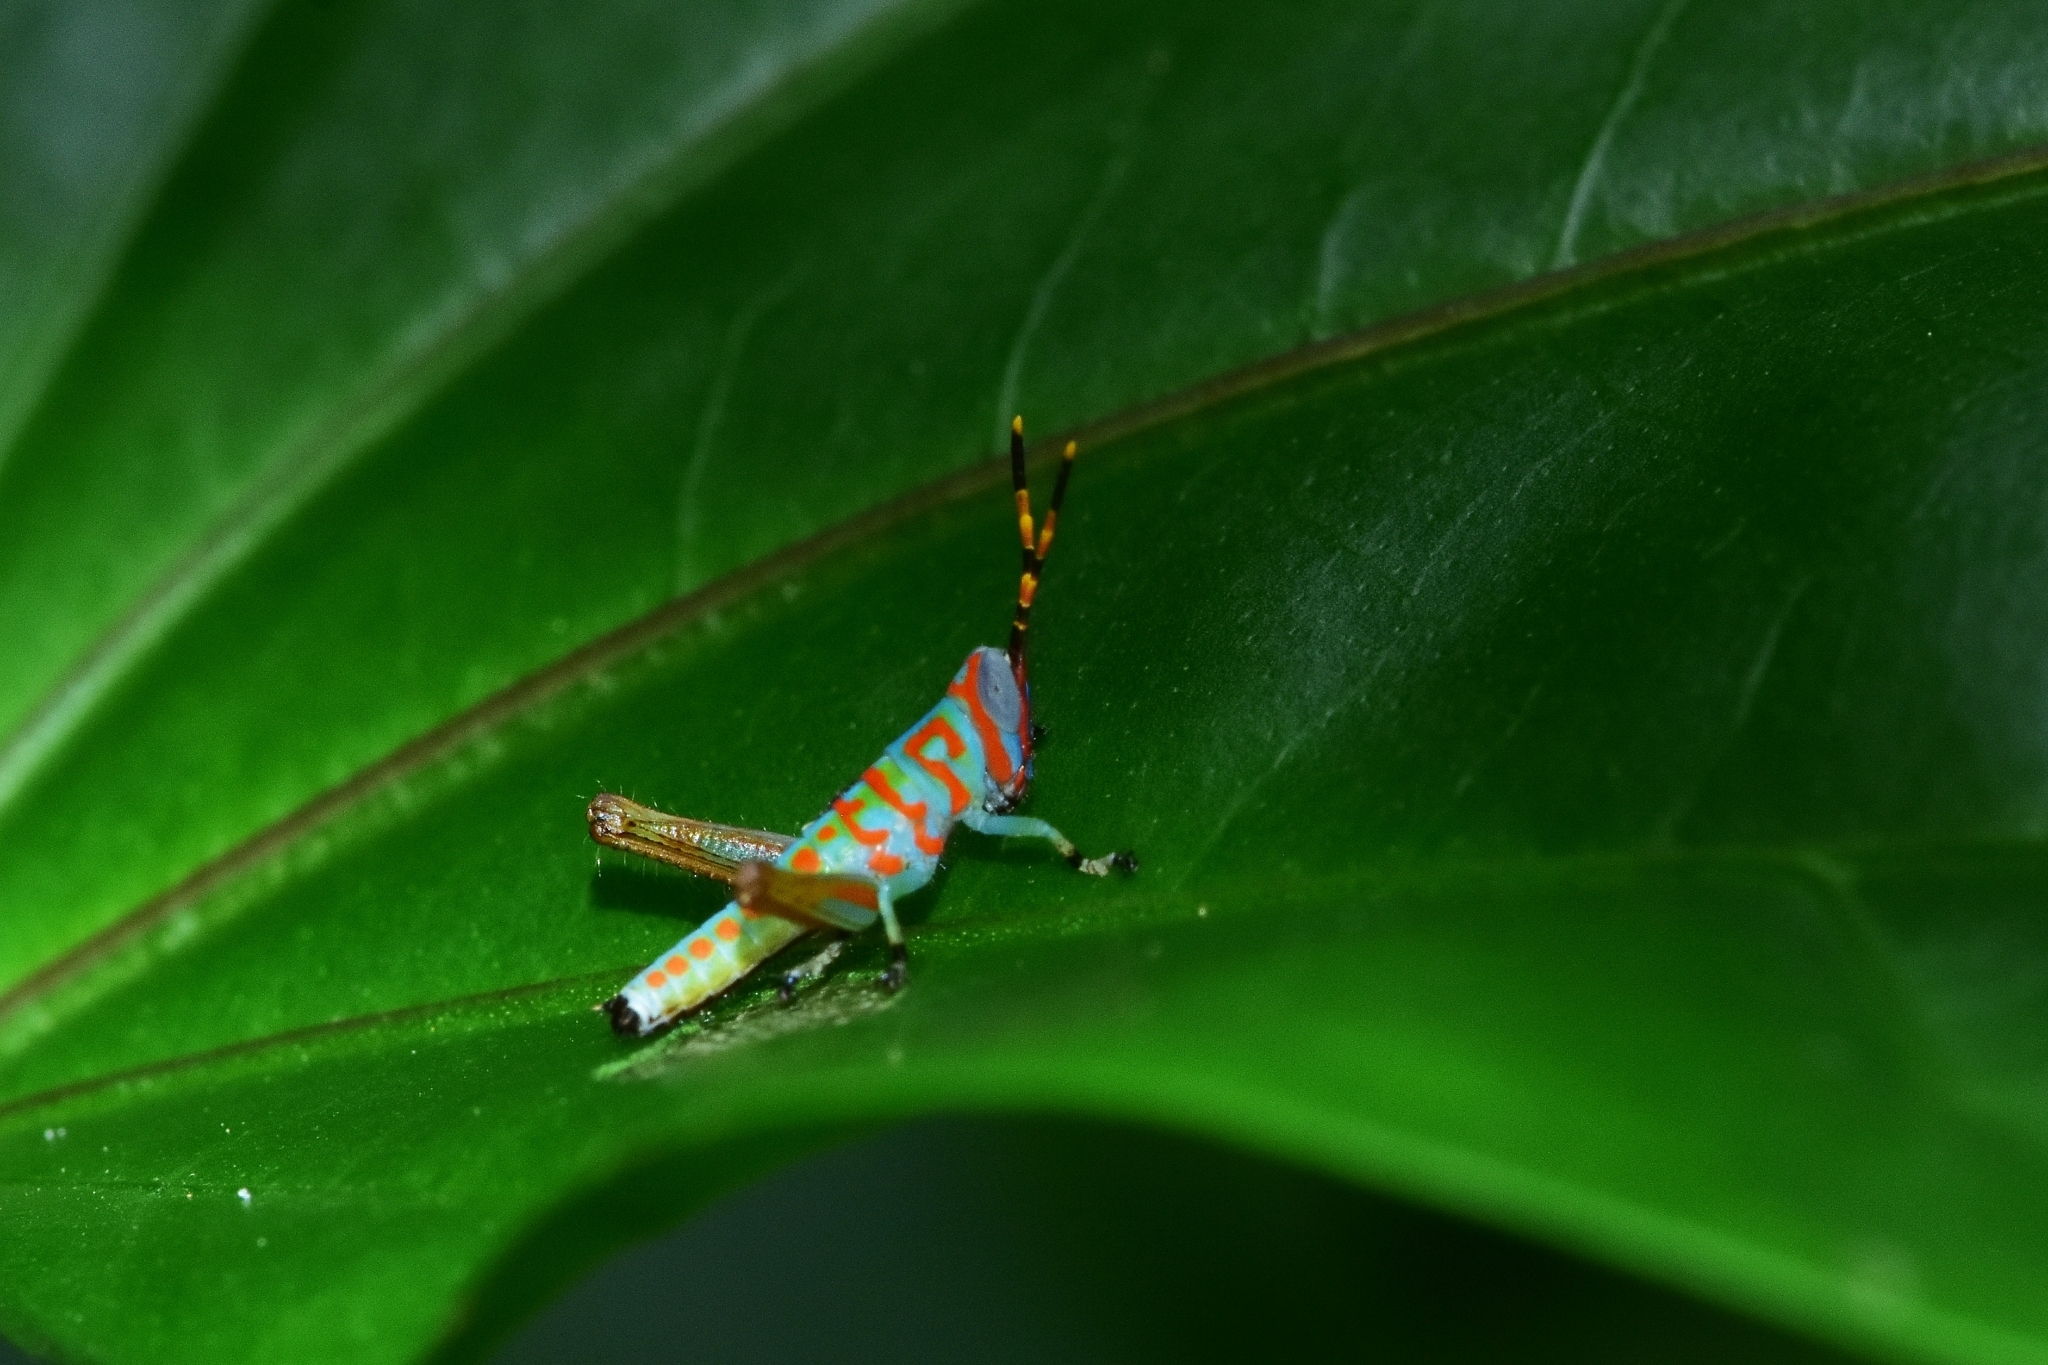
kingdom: Animalia
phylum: Arthropoda
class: Insecta
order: Orthoptera
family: Acrididae
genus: Pirithoicus
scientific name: Pirithoicus ophthalmicus
